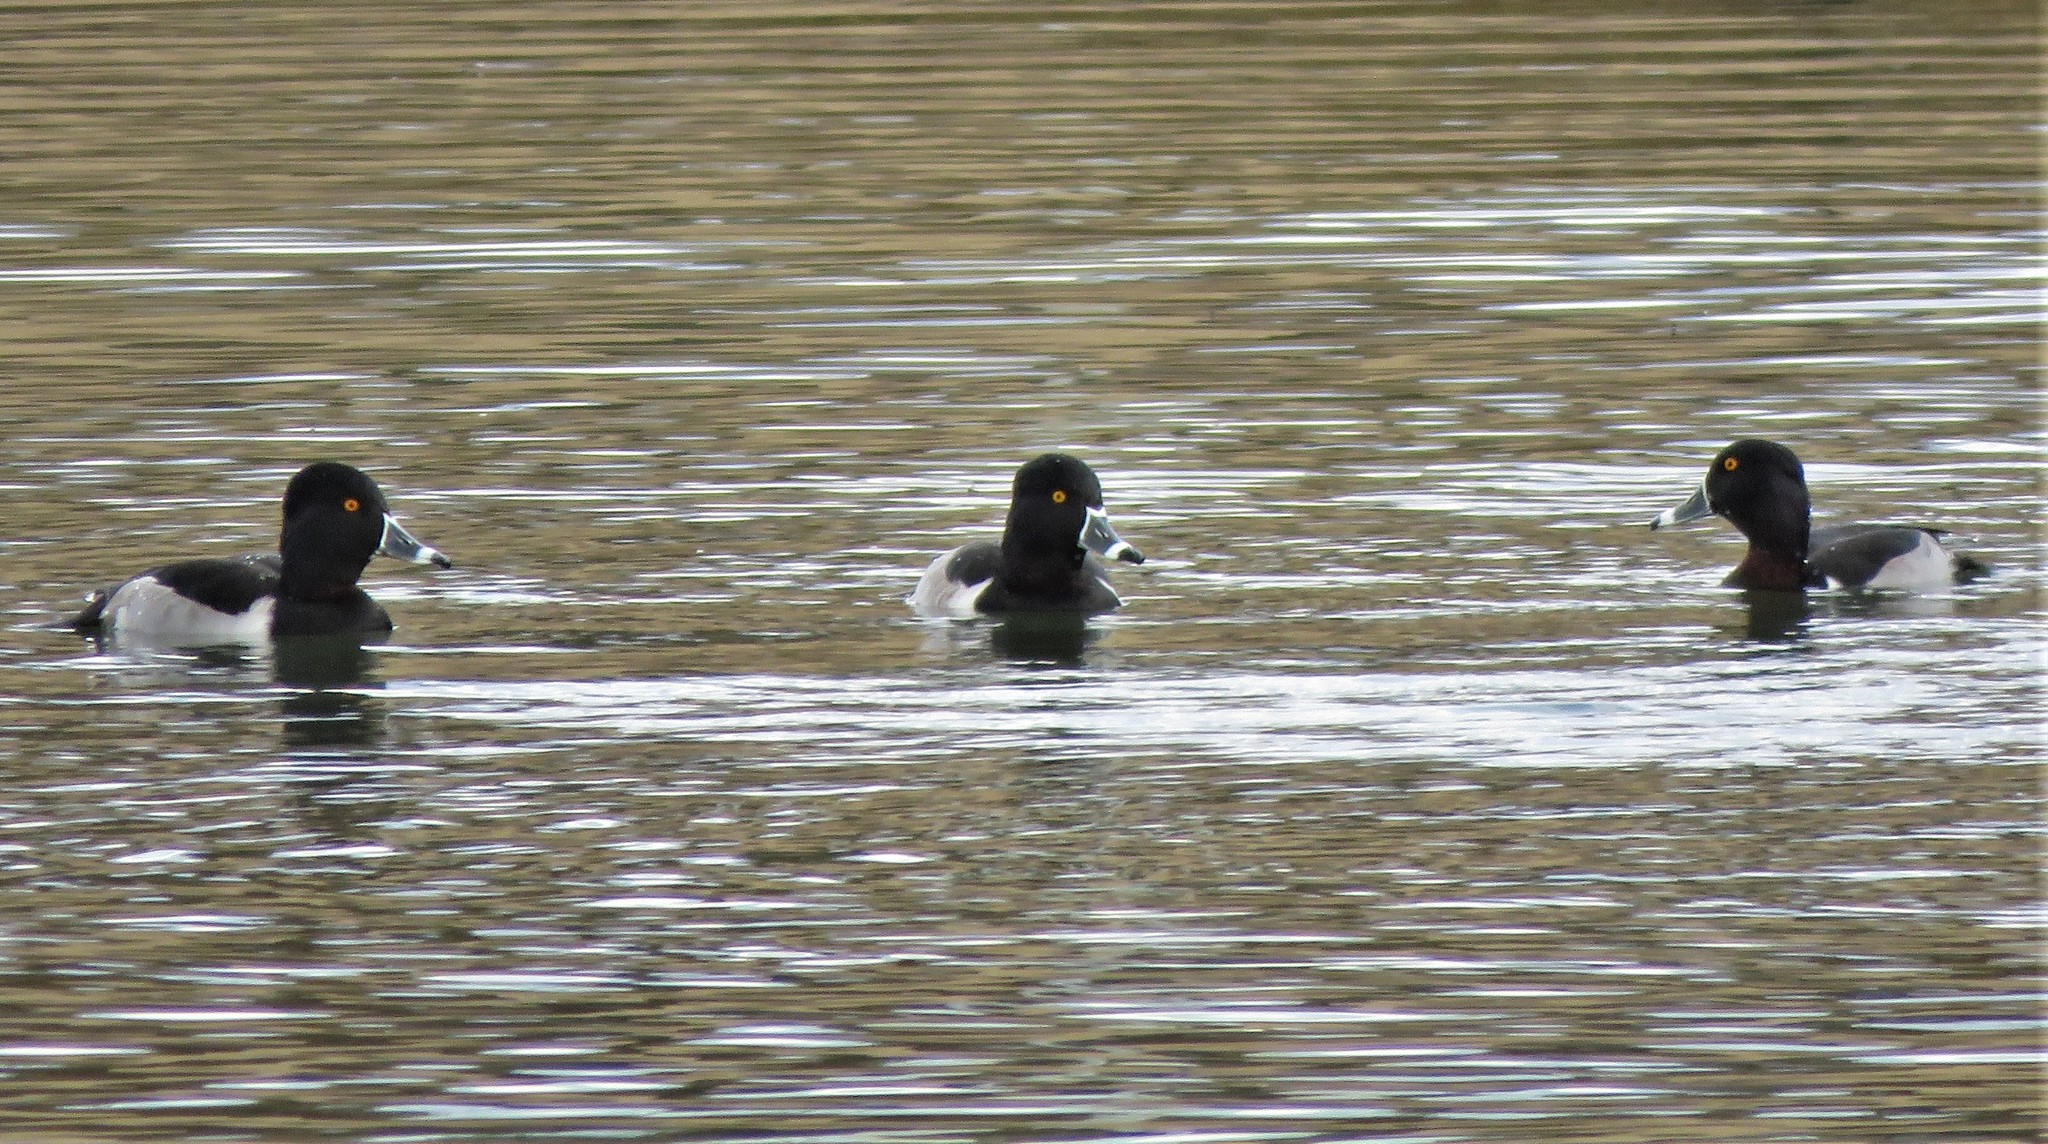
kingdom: Animalia
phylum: Chordata
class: Aves
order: Anseriformes
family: Anatidae
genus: Aythya
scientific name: Aythya collaris
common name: Ring-necked duck
